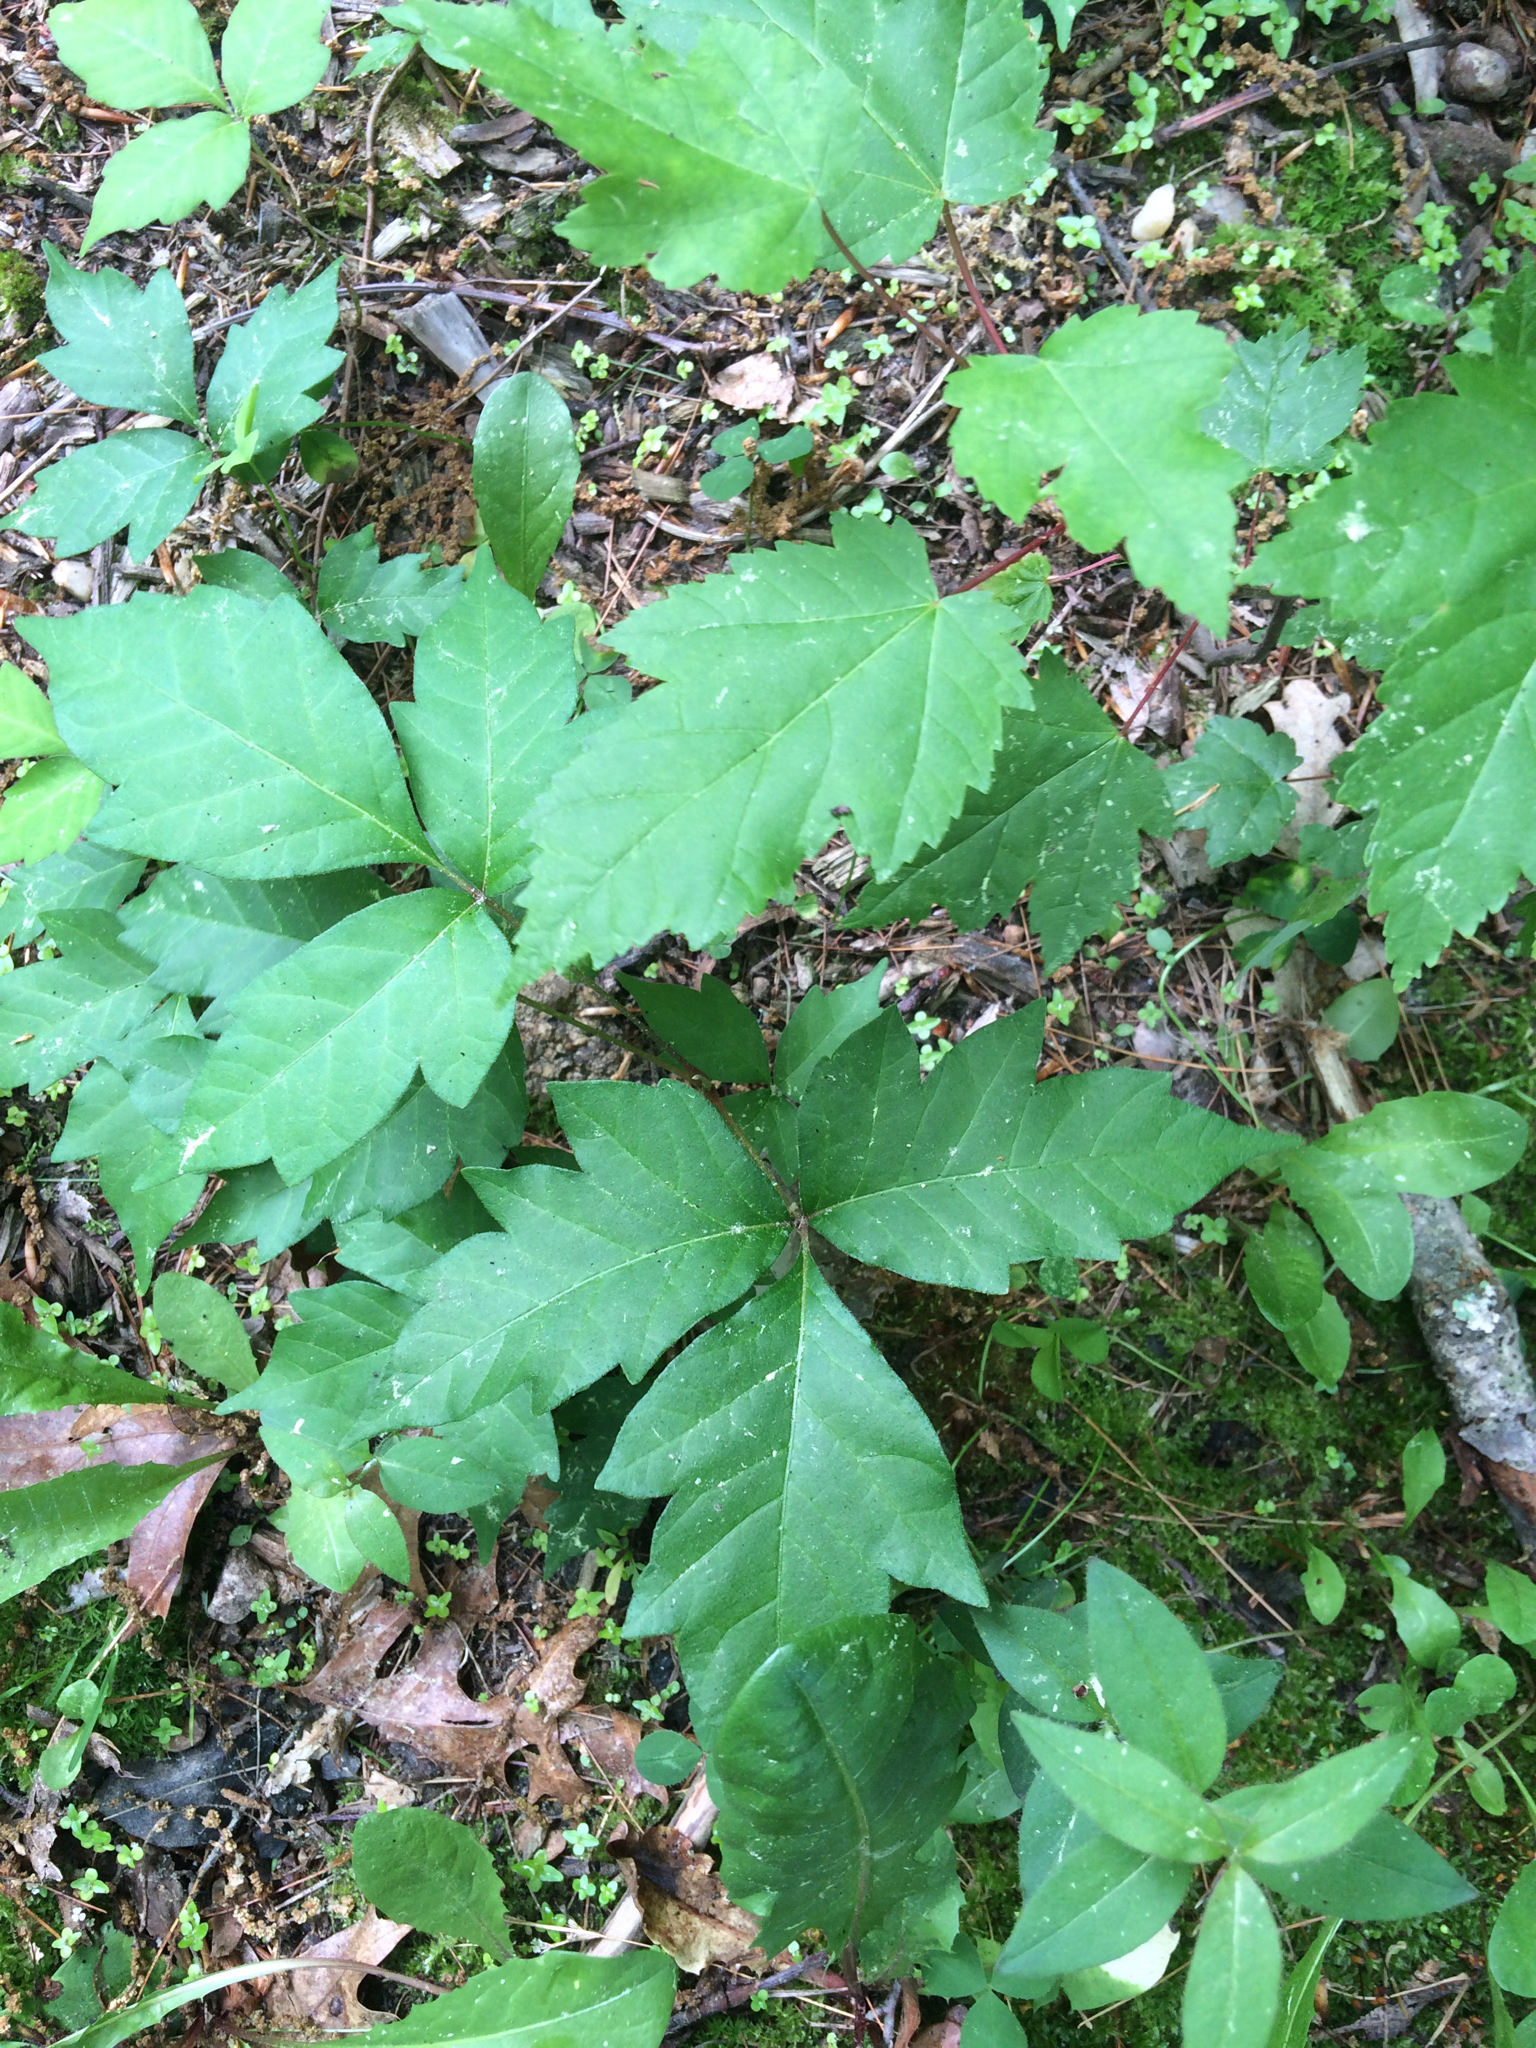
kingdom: Plantae
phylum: Tracheophyta
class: Magnoliopsida
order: Sapindales
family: Anacardiaceae
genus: Toxicodendron
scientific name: Toxicodendron radicans
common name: Poison ivy
